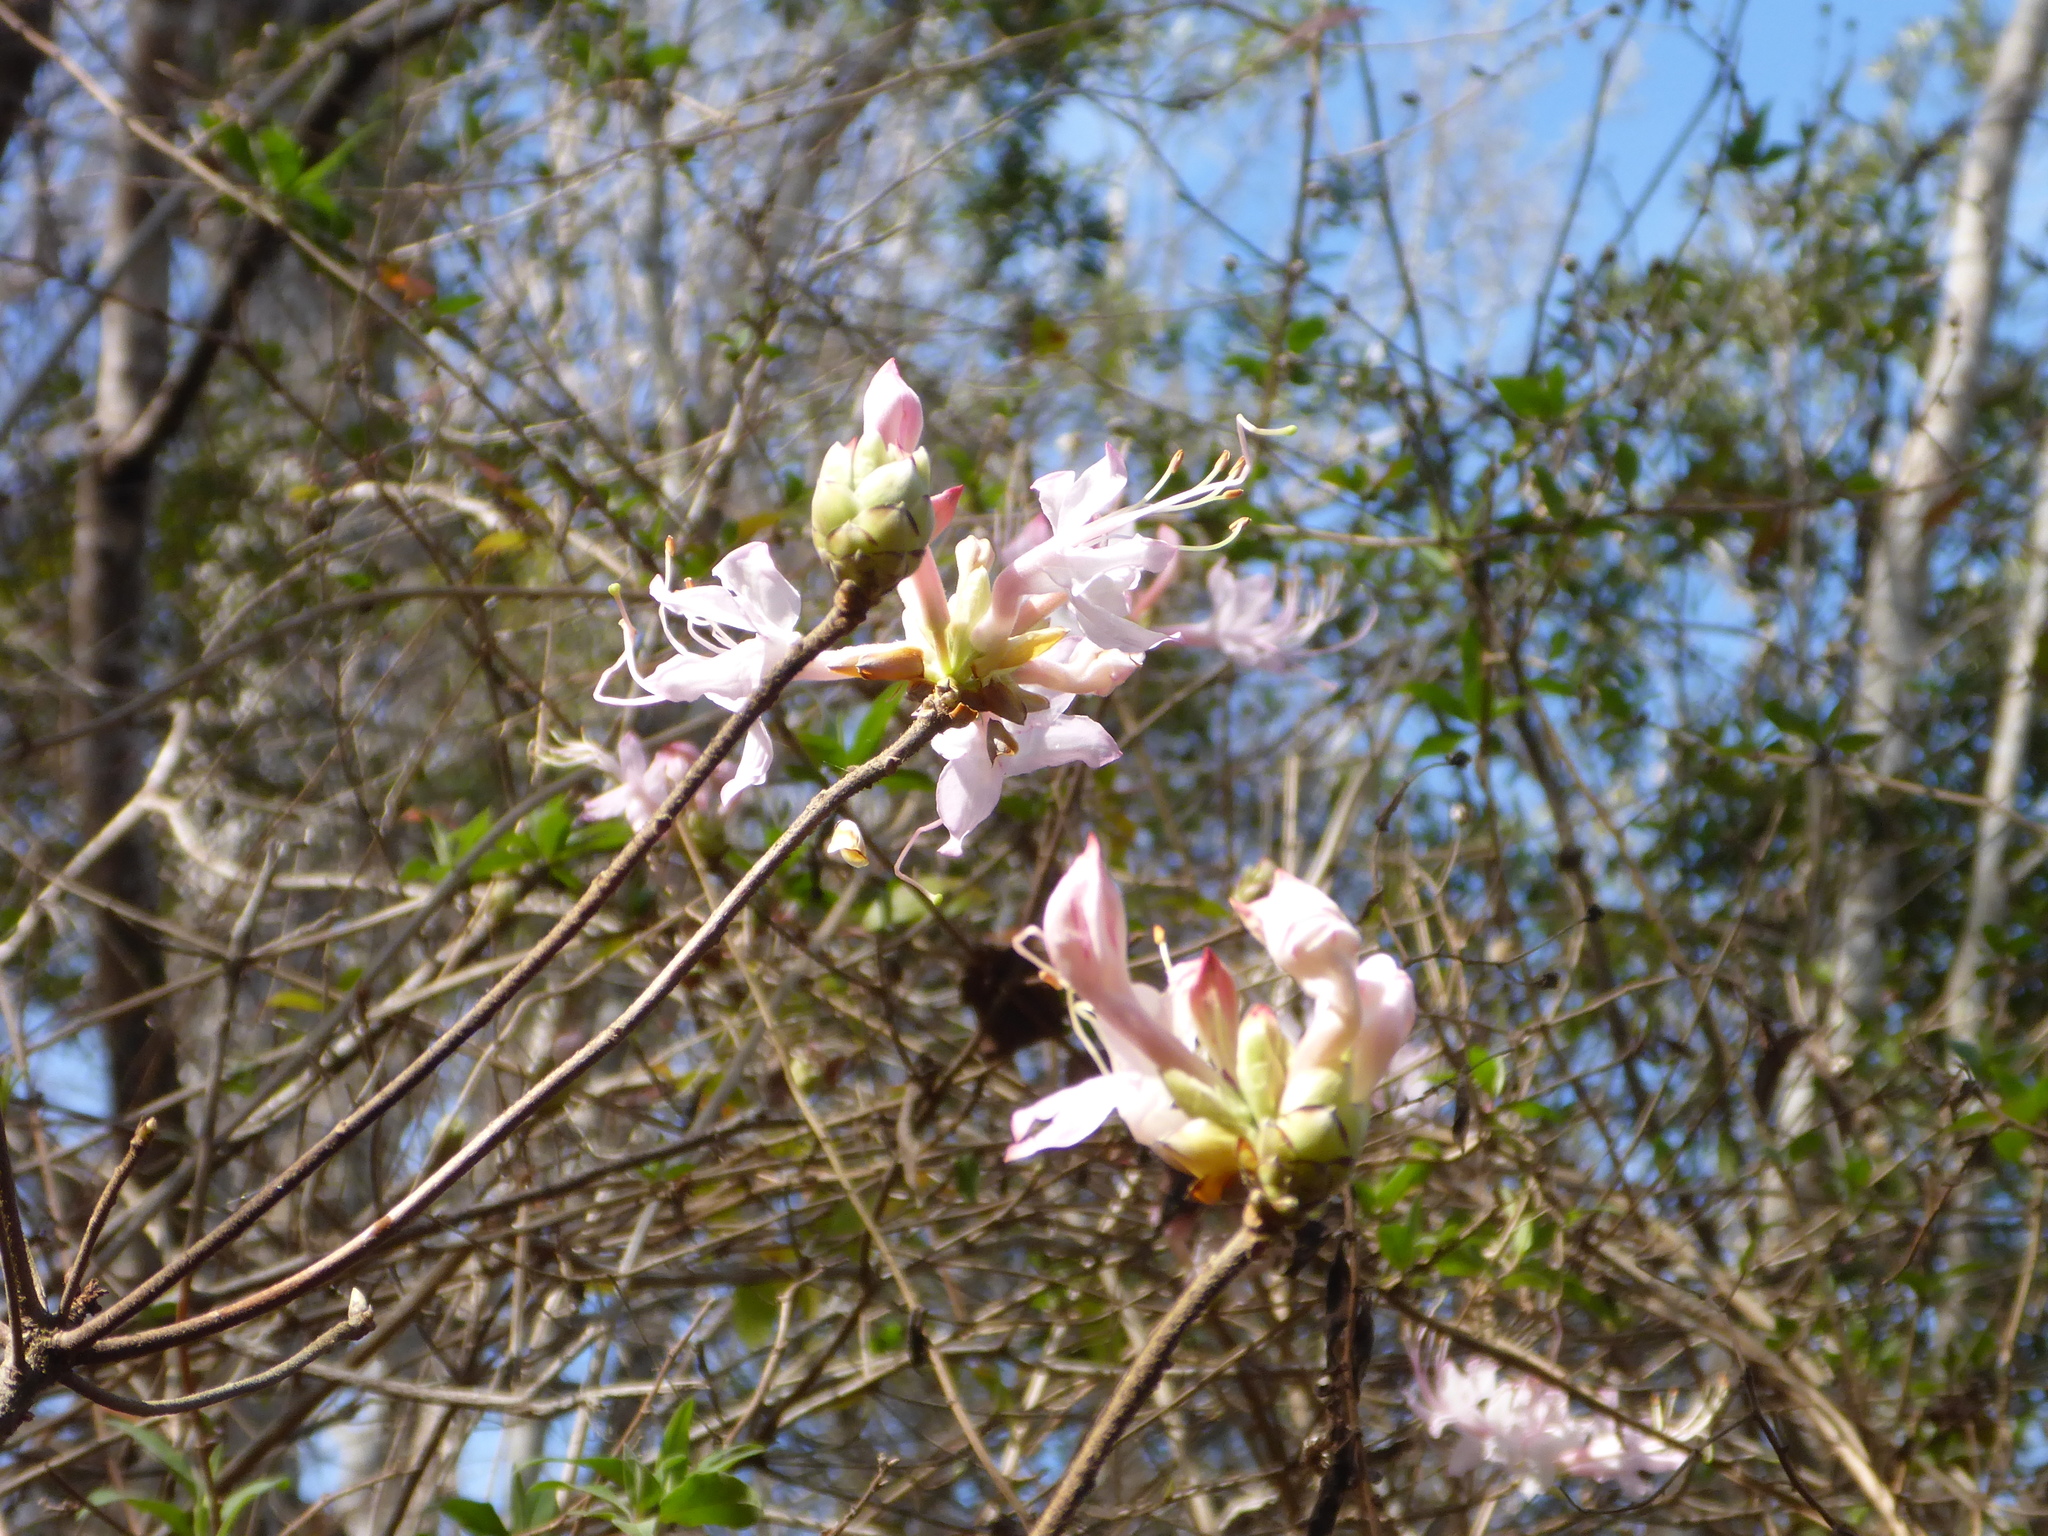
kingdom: Plantae
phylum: Tracheophyta
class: Magnoliopsida
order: Ericales
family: Ericaceae
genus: Rhododendron
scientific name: Rhododendron canescens
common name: Mountain azalea
